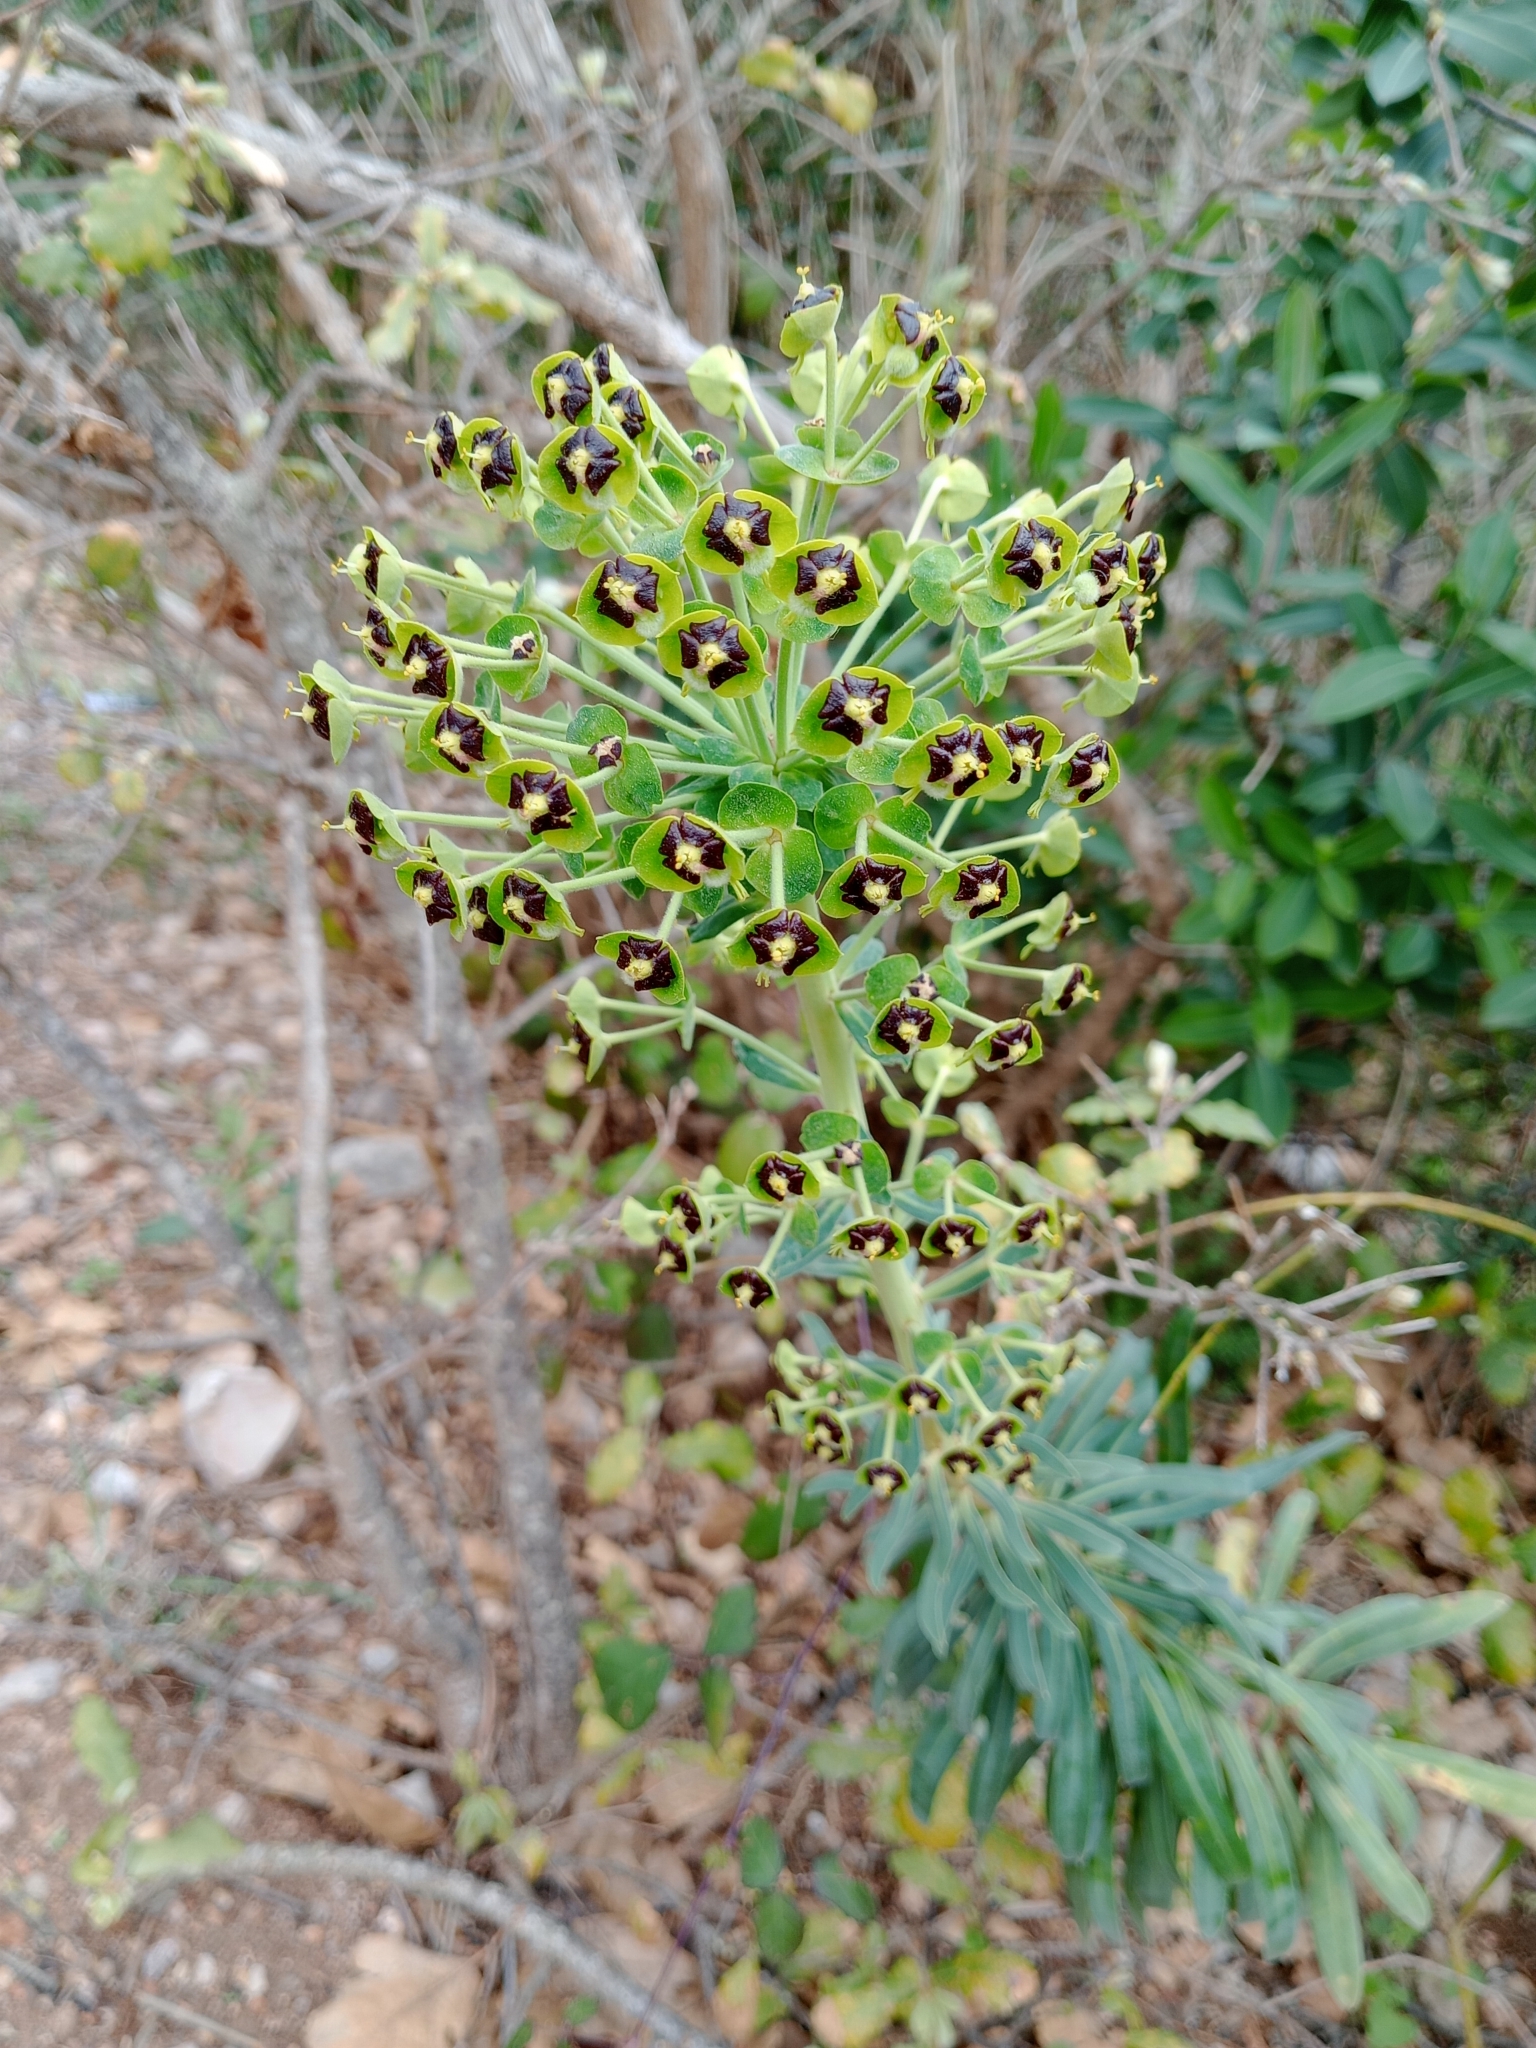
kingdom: Plantae
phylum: Tracheophyta
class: Magnoliopsida
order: Malpighiales
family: Euphorbiaceae
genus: Euphorbia
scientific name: Euphorbia characias
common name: Mediterranean spurge
